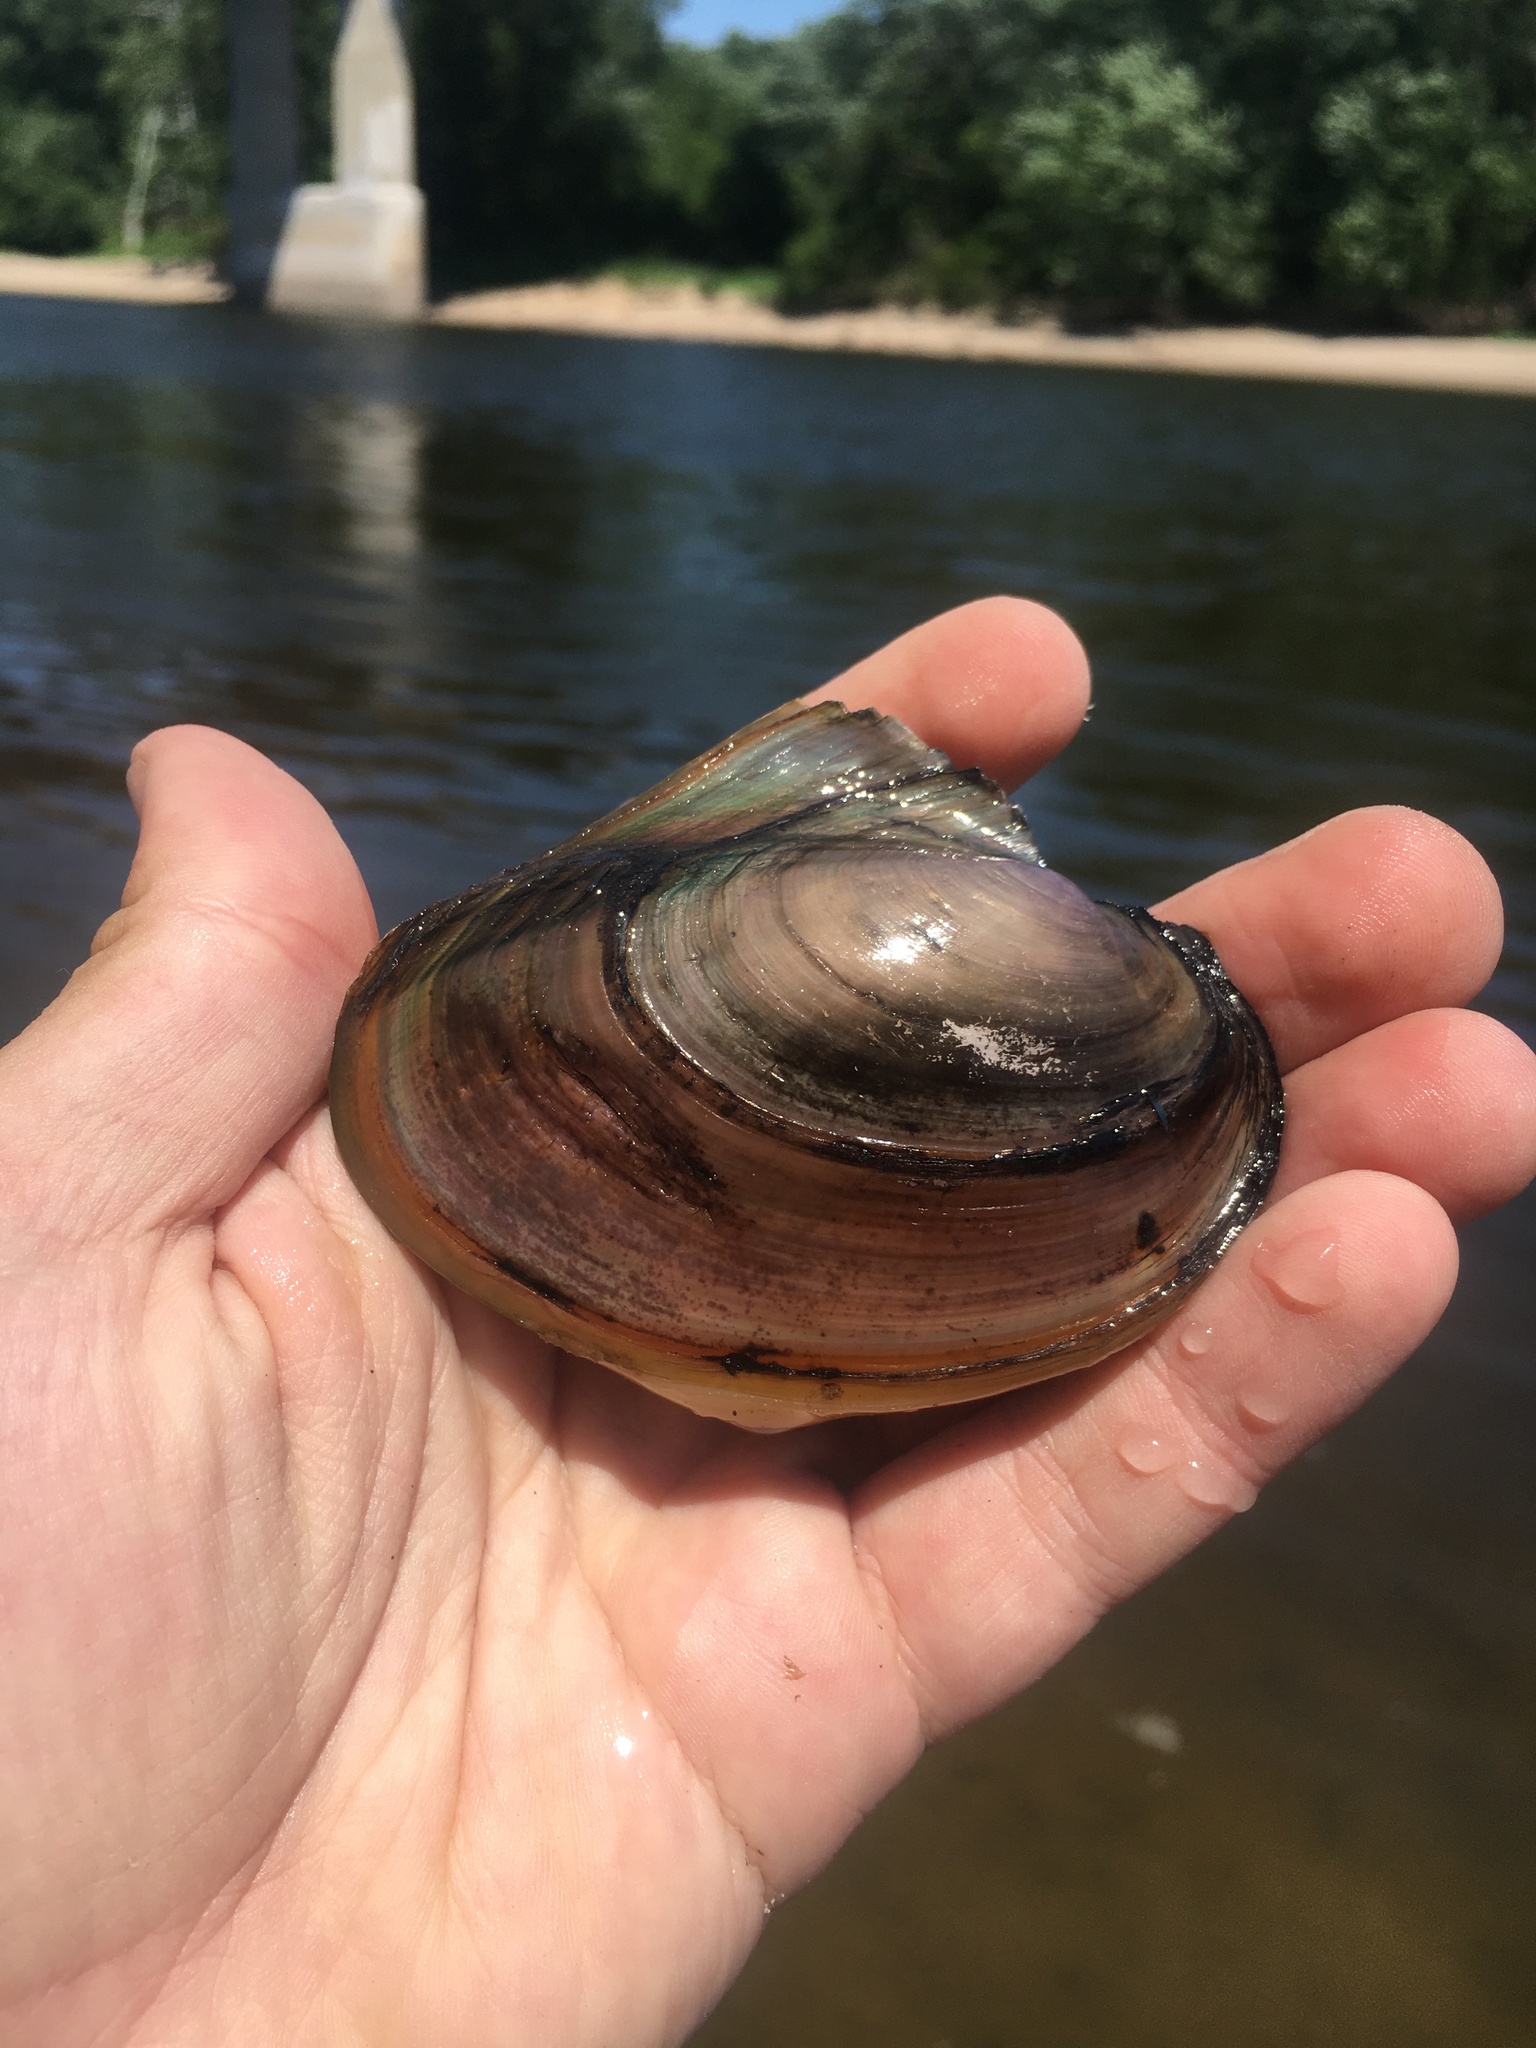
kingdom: Animalia
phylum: Mollusca
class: Bivalvia
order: Unionida
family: Unionidae
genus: Potamilus
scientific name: Potamilus ohiensis
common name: Pink papershell
